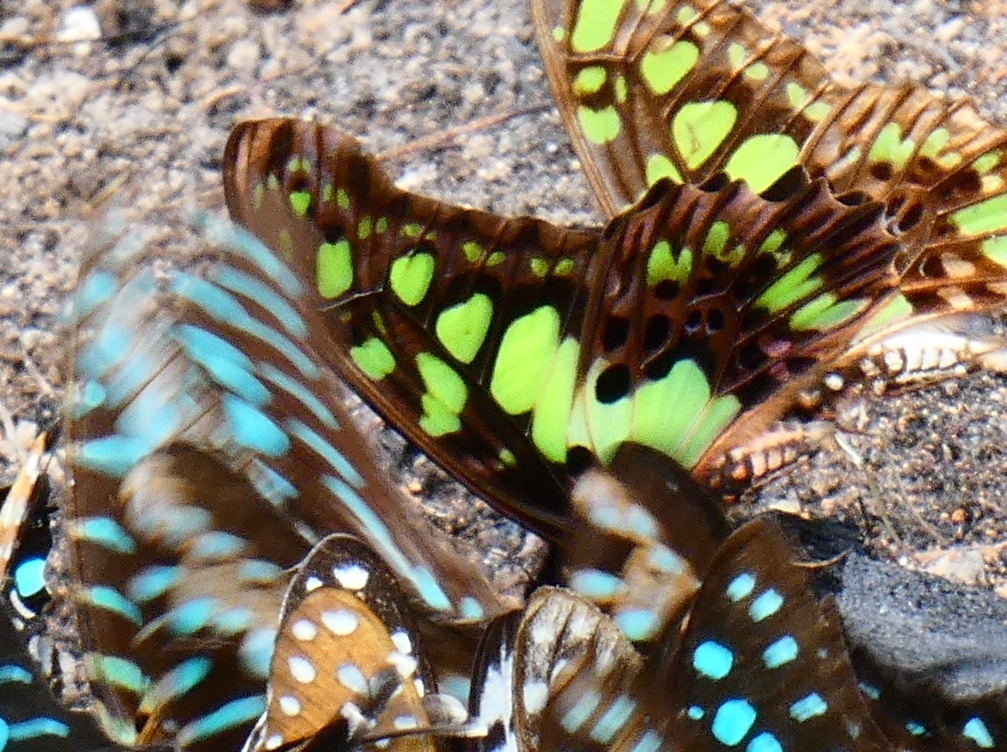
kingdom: Animalia
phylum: Arthropoda
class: Insecta
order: Lepidoptera
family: Papilionidae
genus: Graphium
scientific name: Graphium tynderaeus
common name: Electric green swordtail
